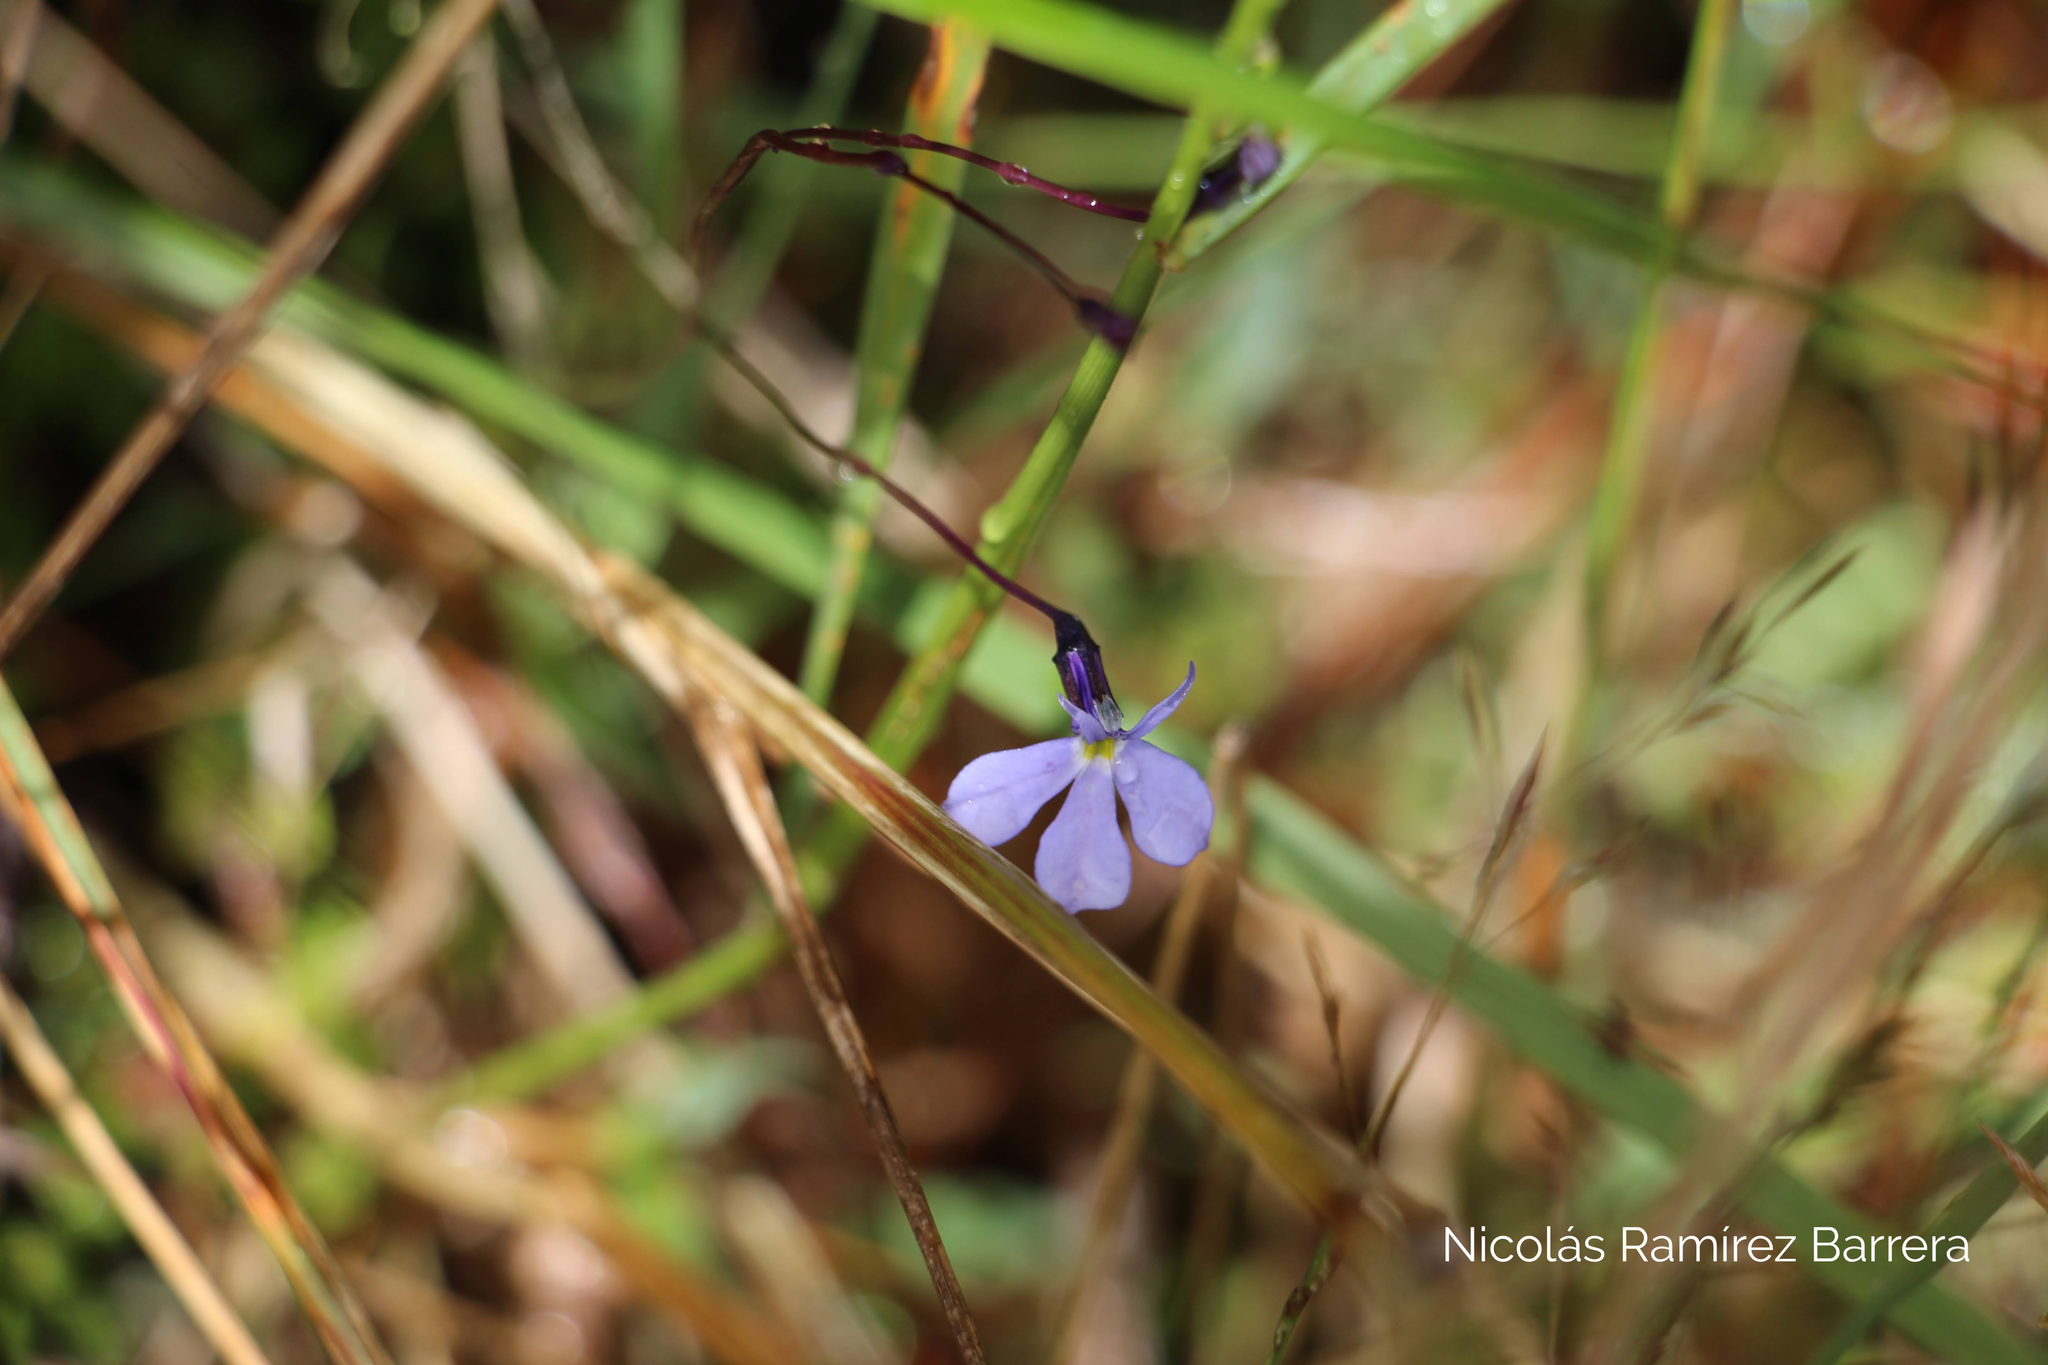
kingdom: Plantae
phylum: Tracheophyta
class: Magnoliopsida
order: Asterales
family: Campanulaceae
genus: Lobelia
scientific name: Lobelia tenera
